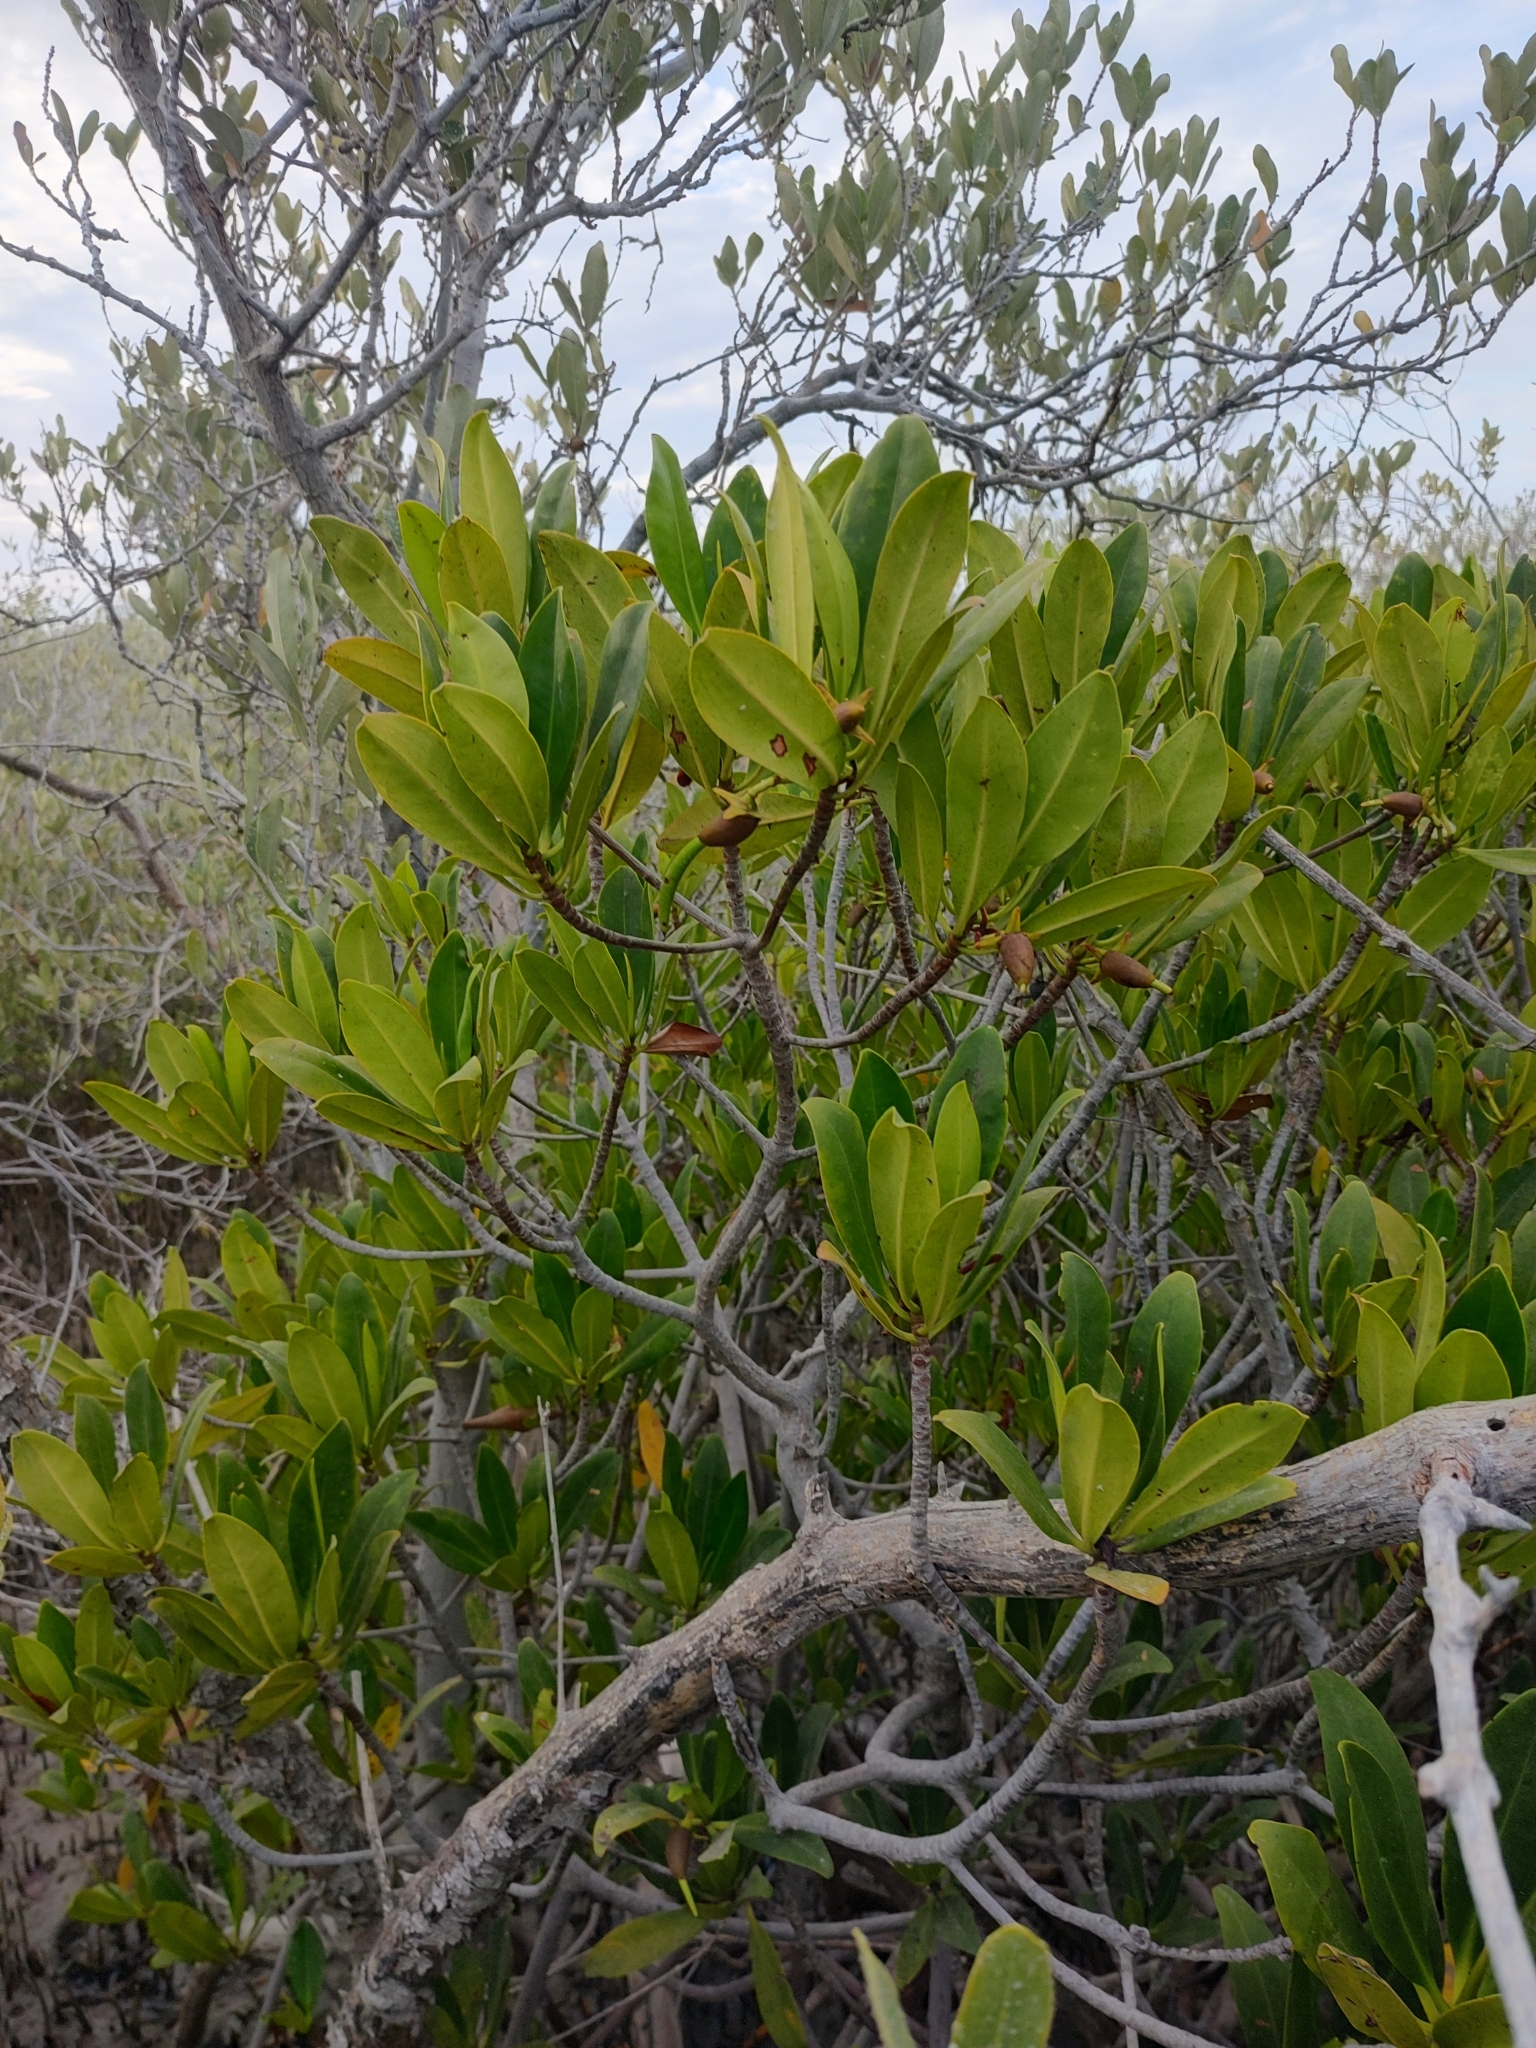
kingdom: Plantae
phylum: Tracheophyta
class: Magnoliopsida
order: Malpighiales
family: Rhizophoraceae
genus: Rhizophora
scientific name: Rhizophora mangle
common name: Red mangrove
